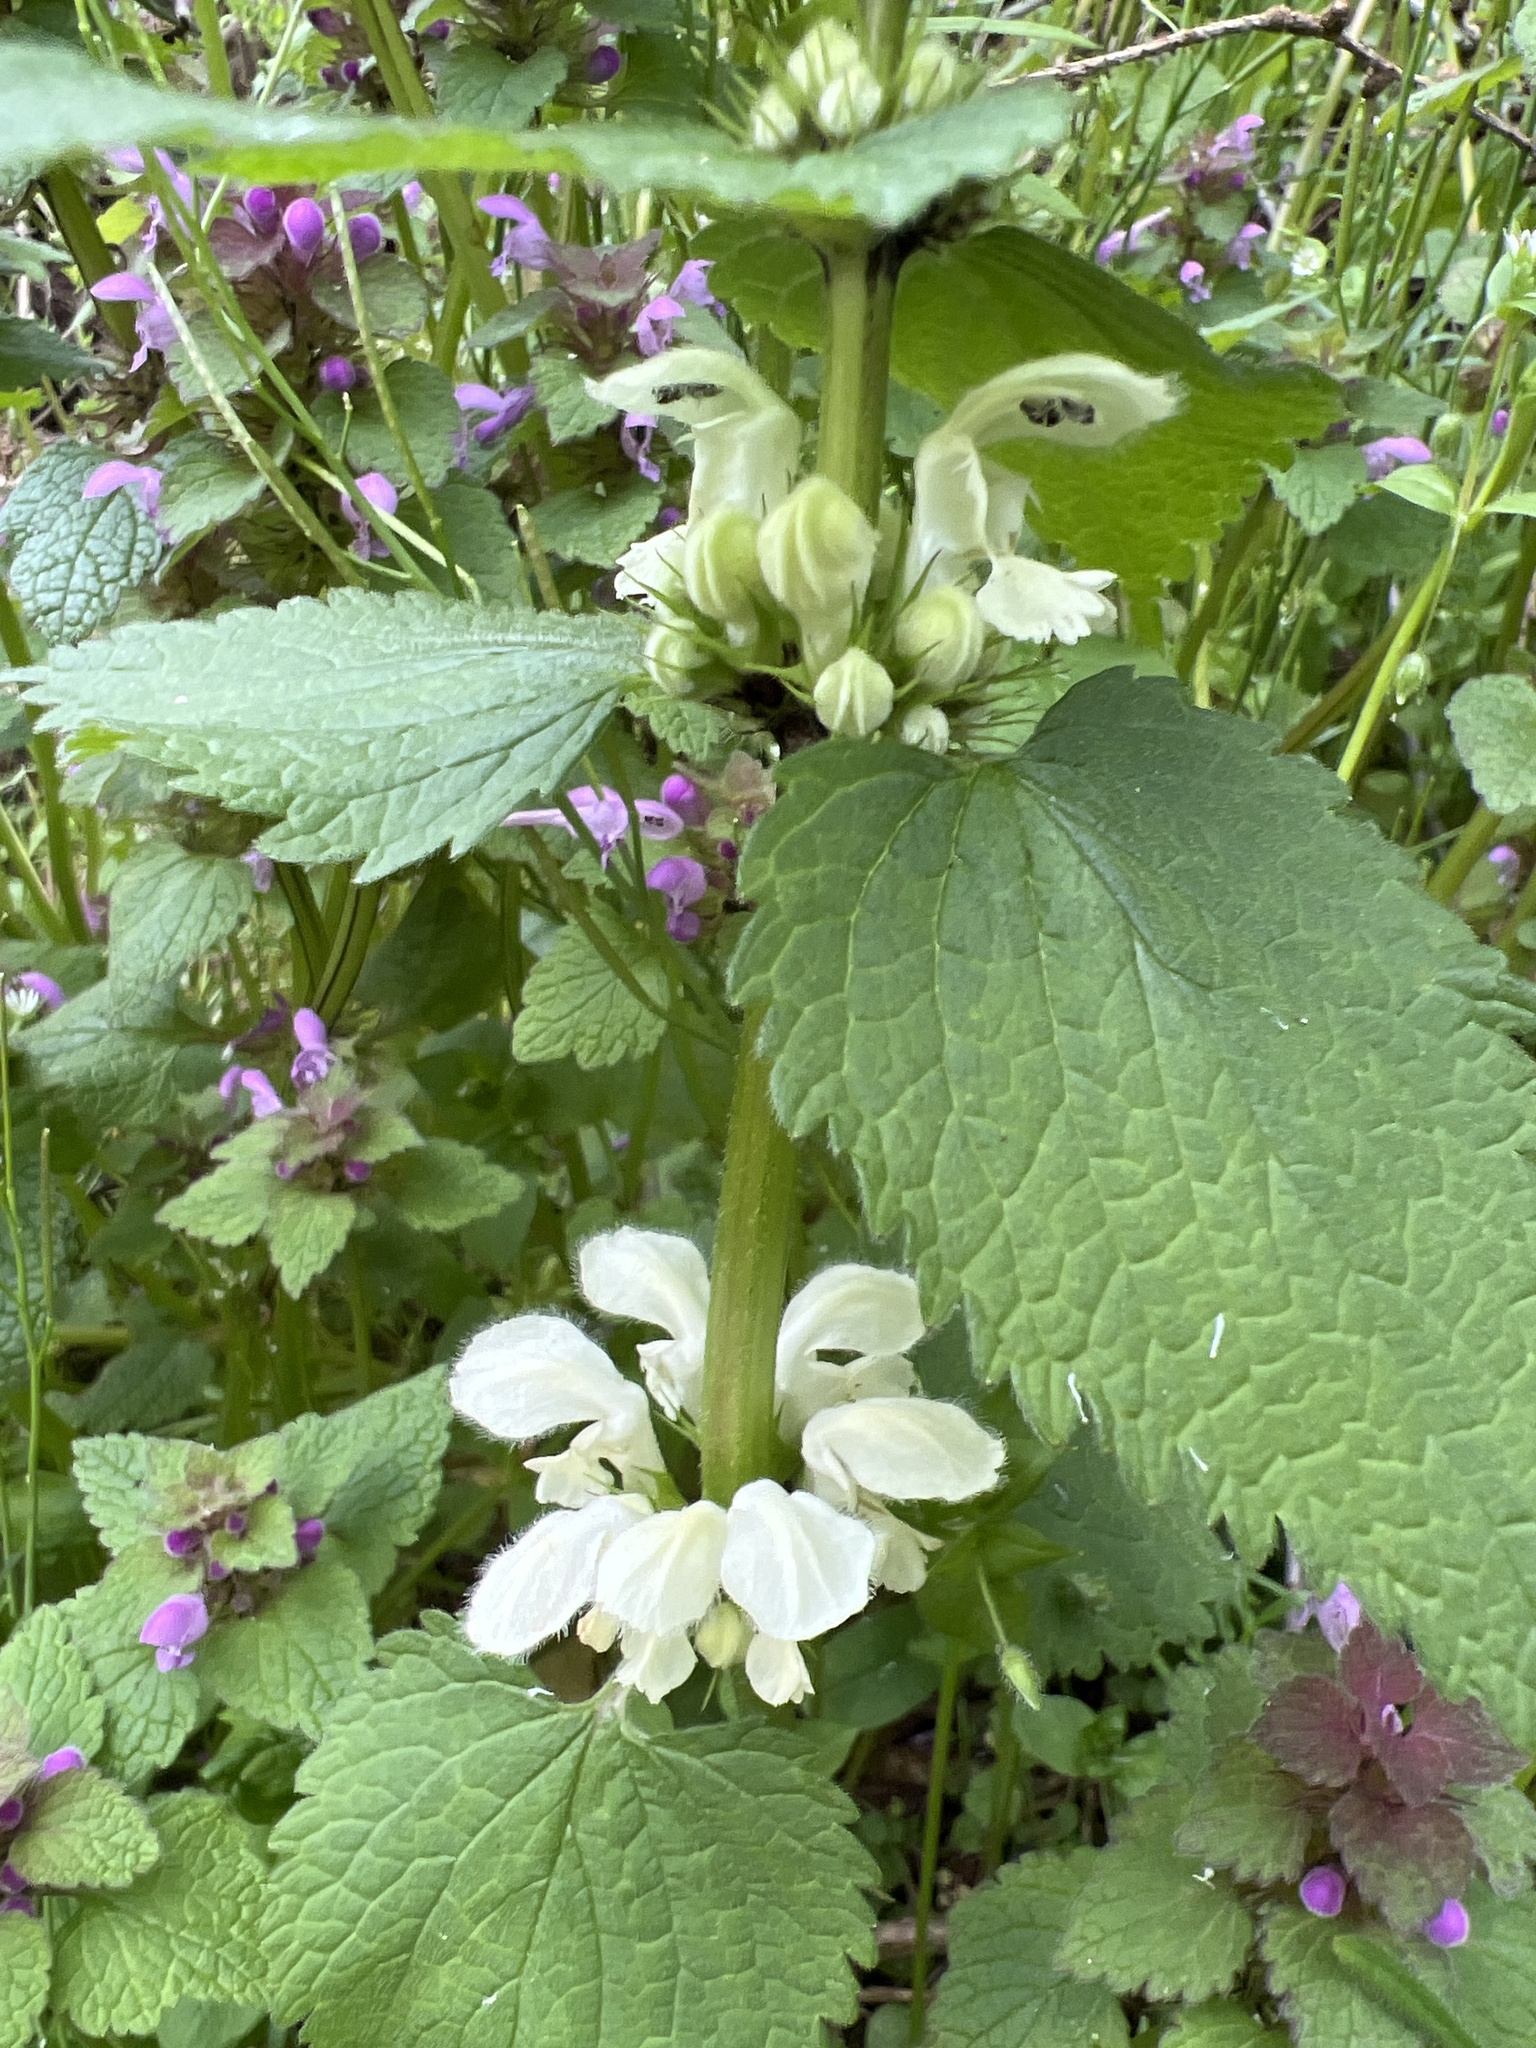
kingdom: Plantae
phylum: Tracheophyta
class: Magnoliopsida
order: Lamiales
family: Lamiaceae
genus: Lamium
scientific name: Lamium album
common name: White dead-nettle
